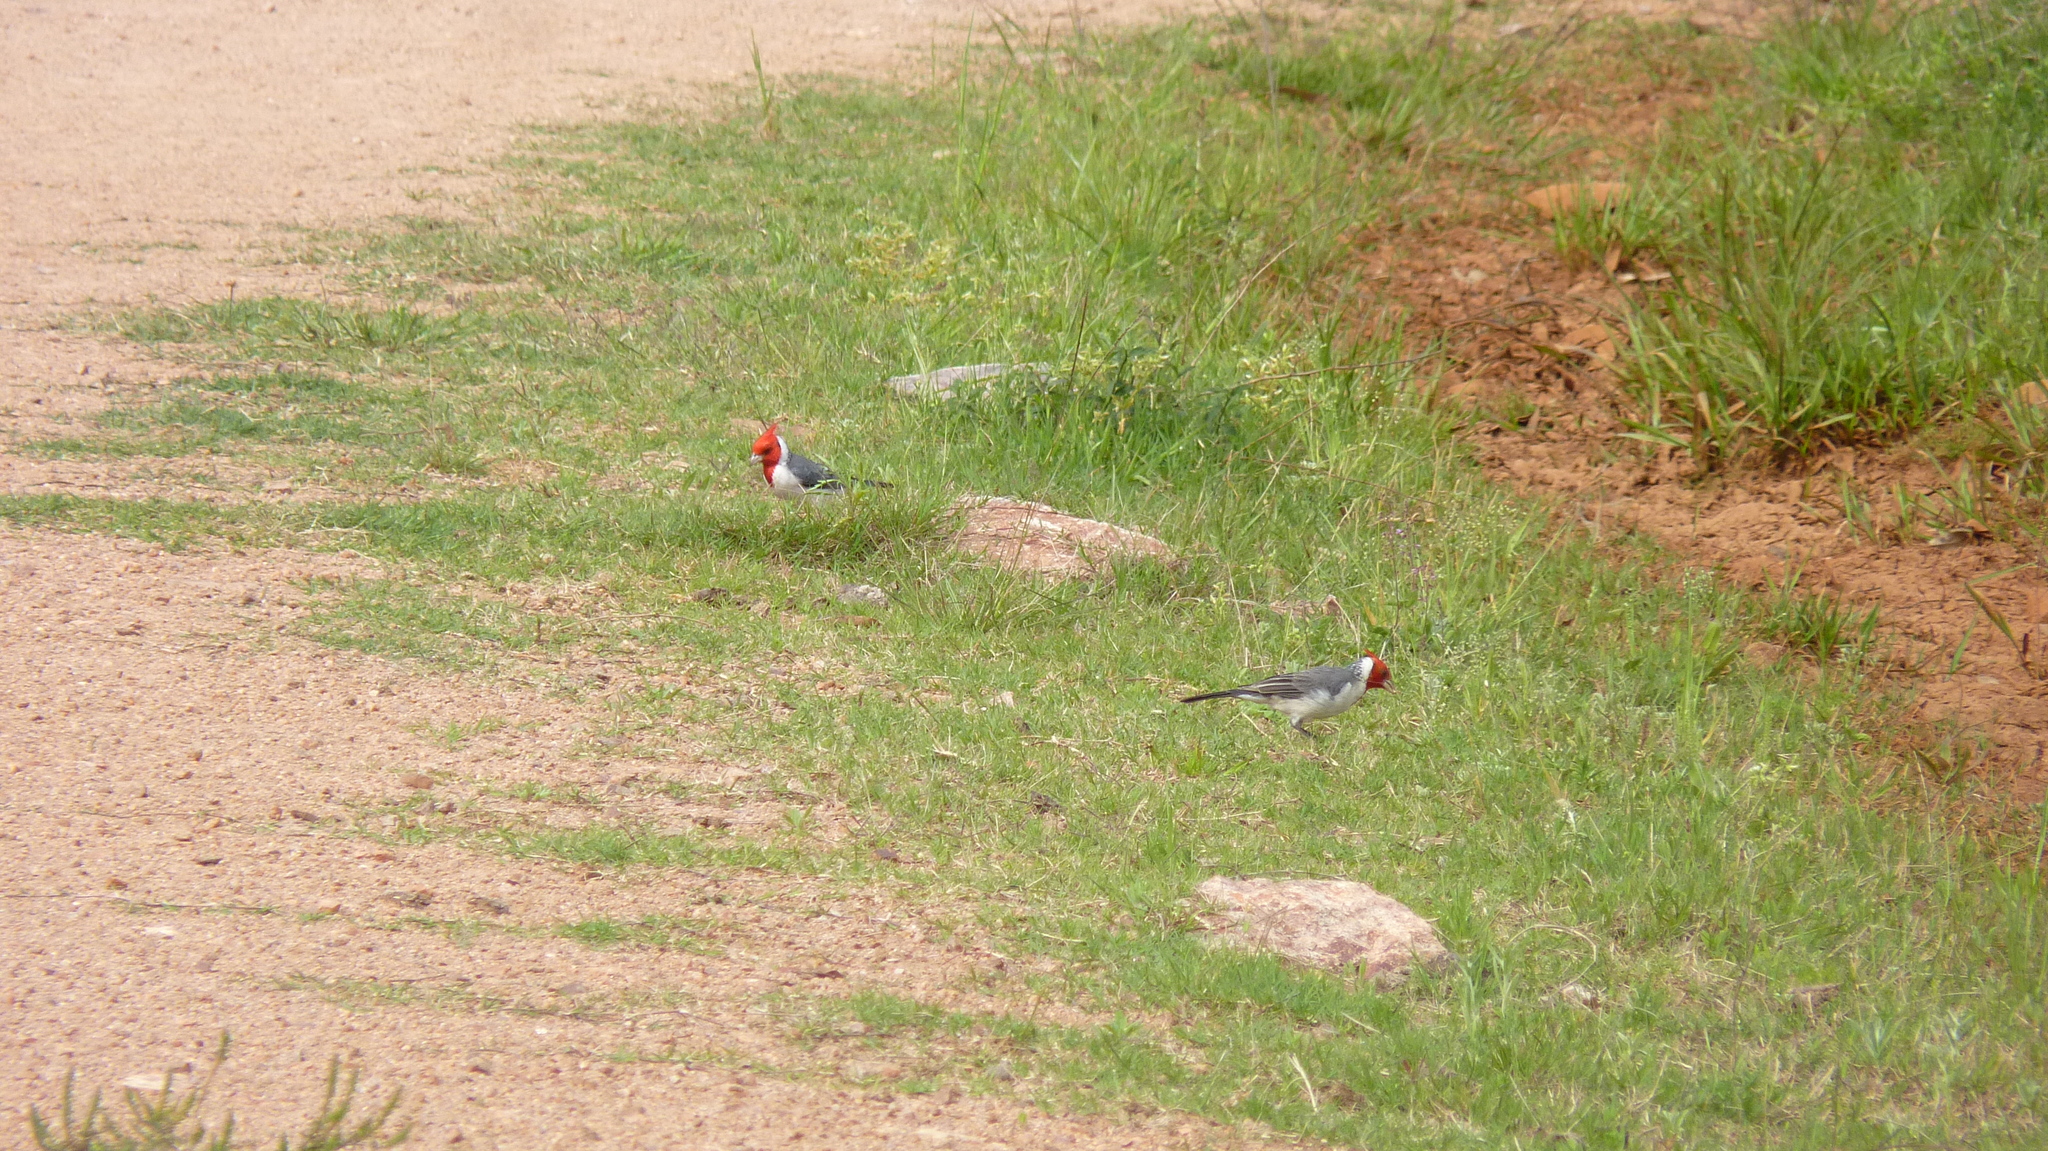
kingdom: Animalia
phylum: Chordata
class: Aves
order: Passeriformes
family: Thraupidae
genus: Paroaria
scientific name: Paroaria coronata
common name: Red-crested cardinal
